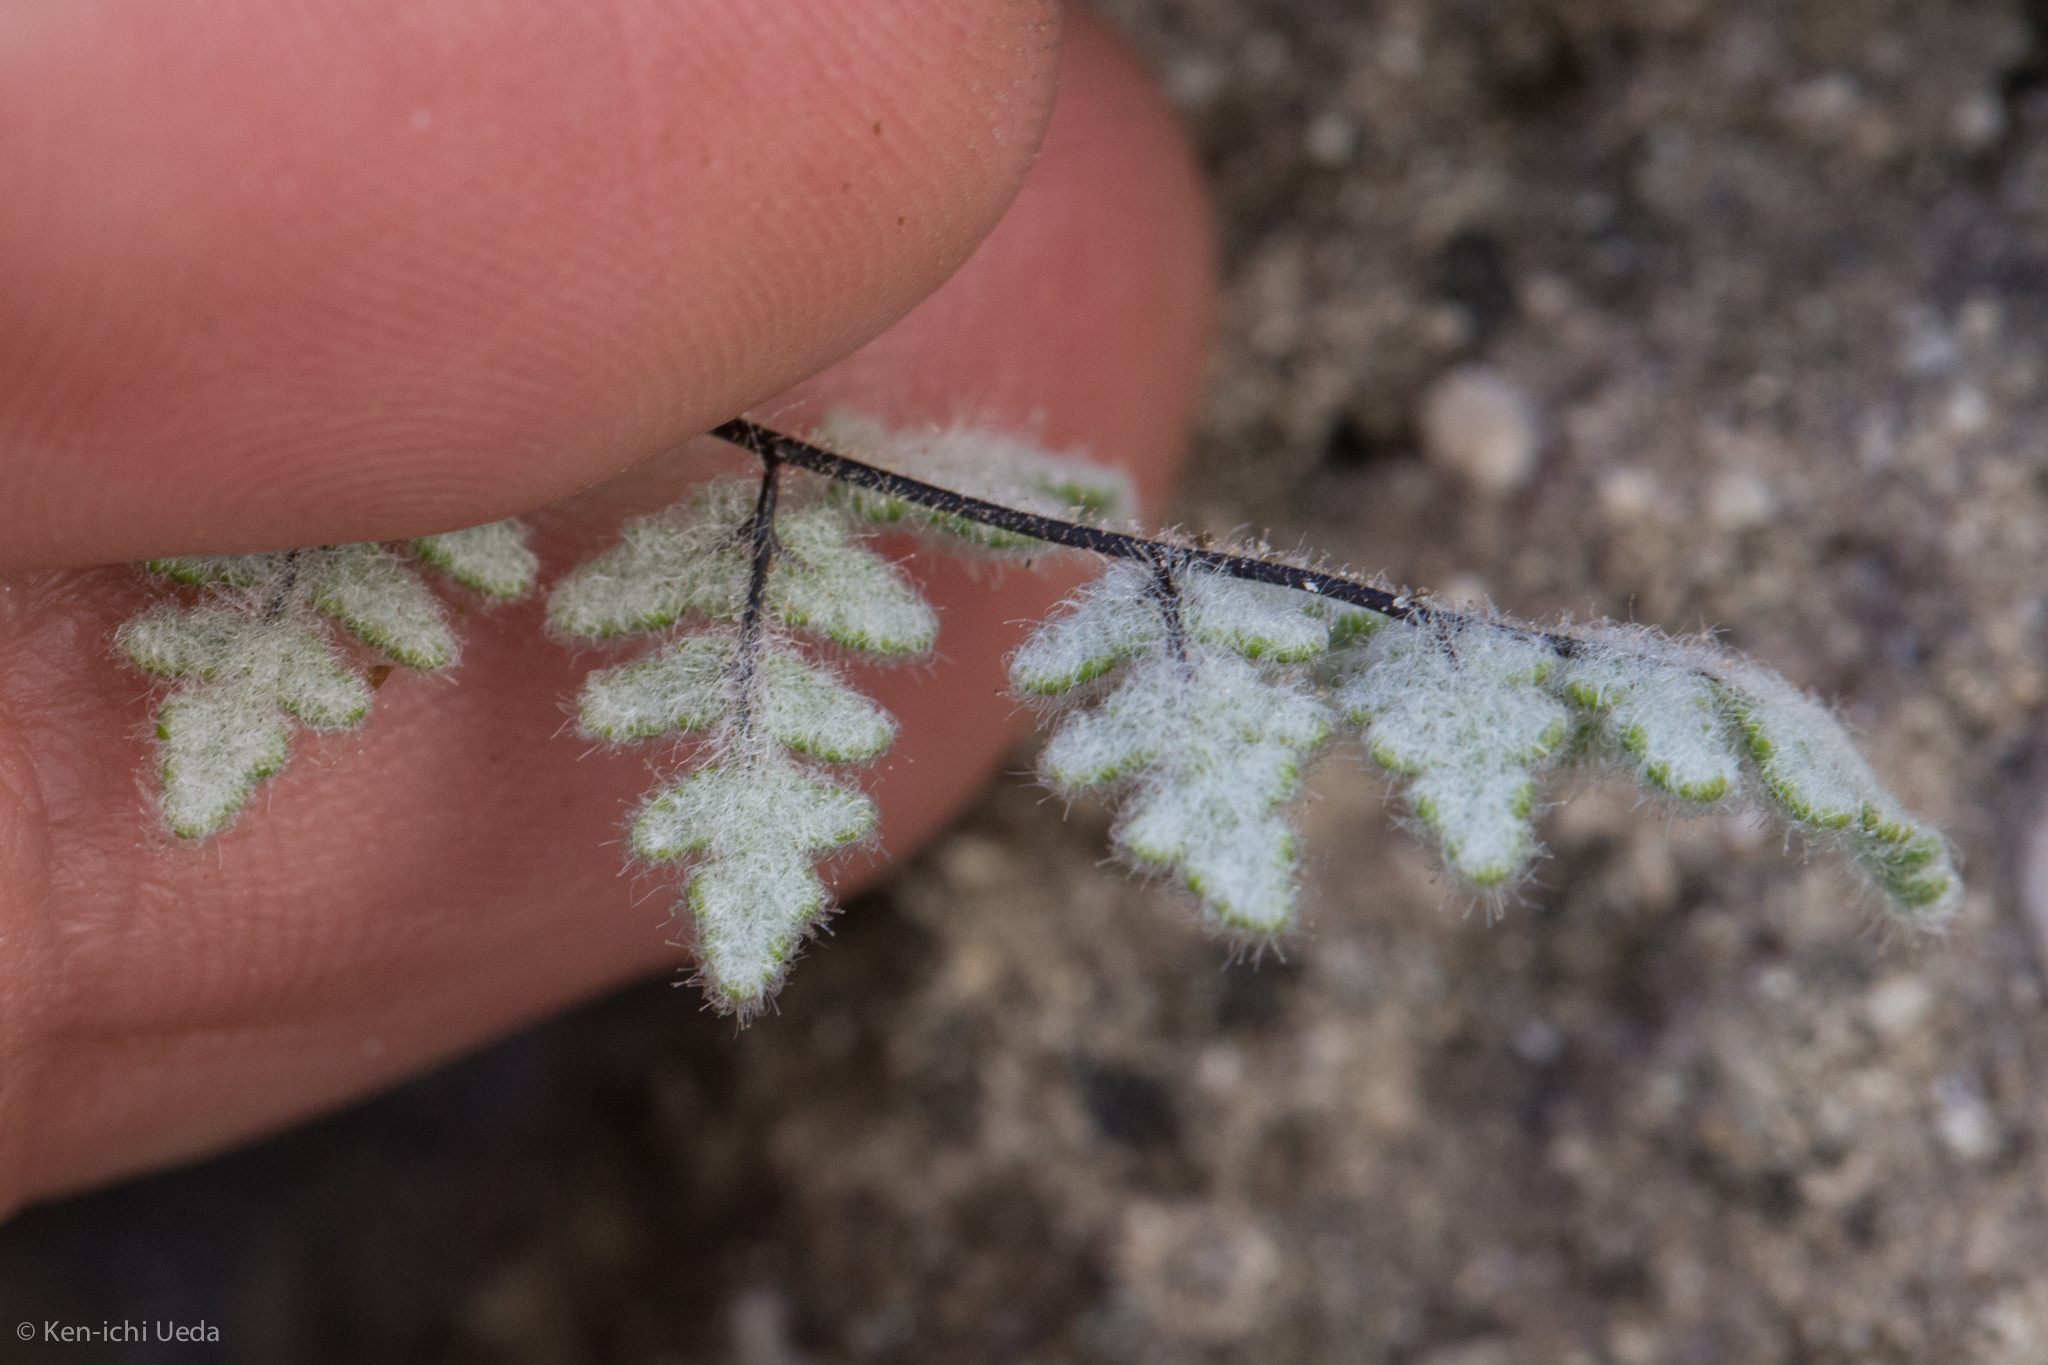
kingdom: Plantae
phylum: Tracheophyta
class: Polypodiopsida
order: Polypodiales
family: Pteridaceae
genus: Myriopteris
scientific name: Myriopteris parryi
